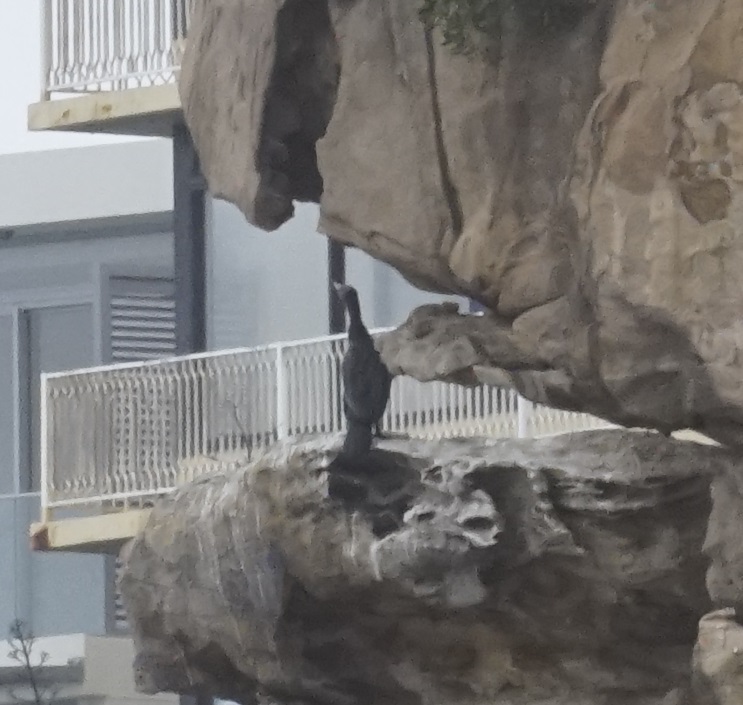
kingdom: Animalia
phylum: Chordata
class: Aves
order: Suliformes
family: Phalacrocoracidae
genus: Phalacrocorax
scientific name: Phalacrocorax carbo
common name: Great cormorant
